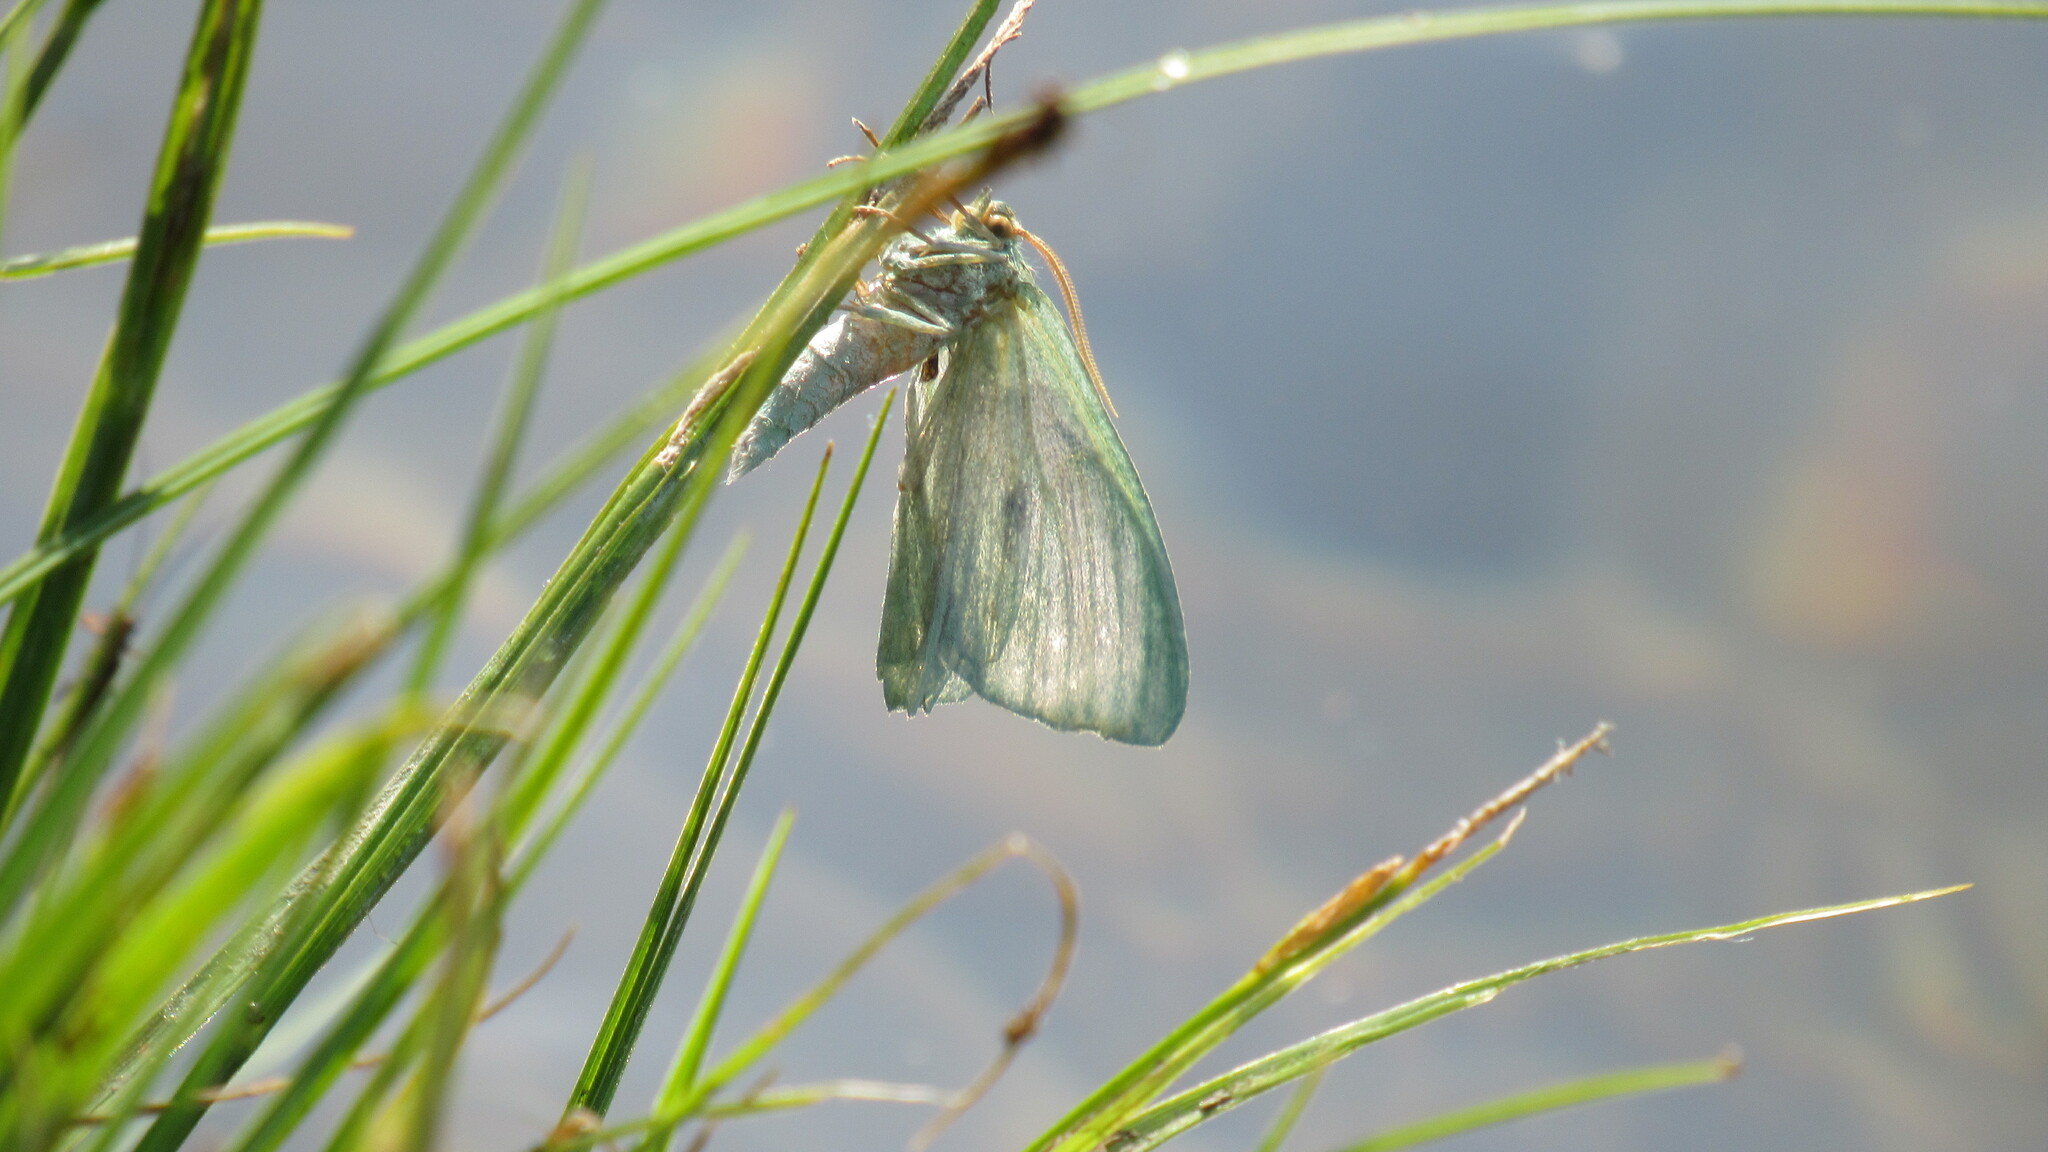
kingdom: Animalia
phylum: Arthropoda
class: Insecta
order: Lepidoptera
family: Geometridae
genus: Geometra
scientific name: Geometra papilionaria
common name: Large emerald
